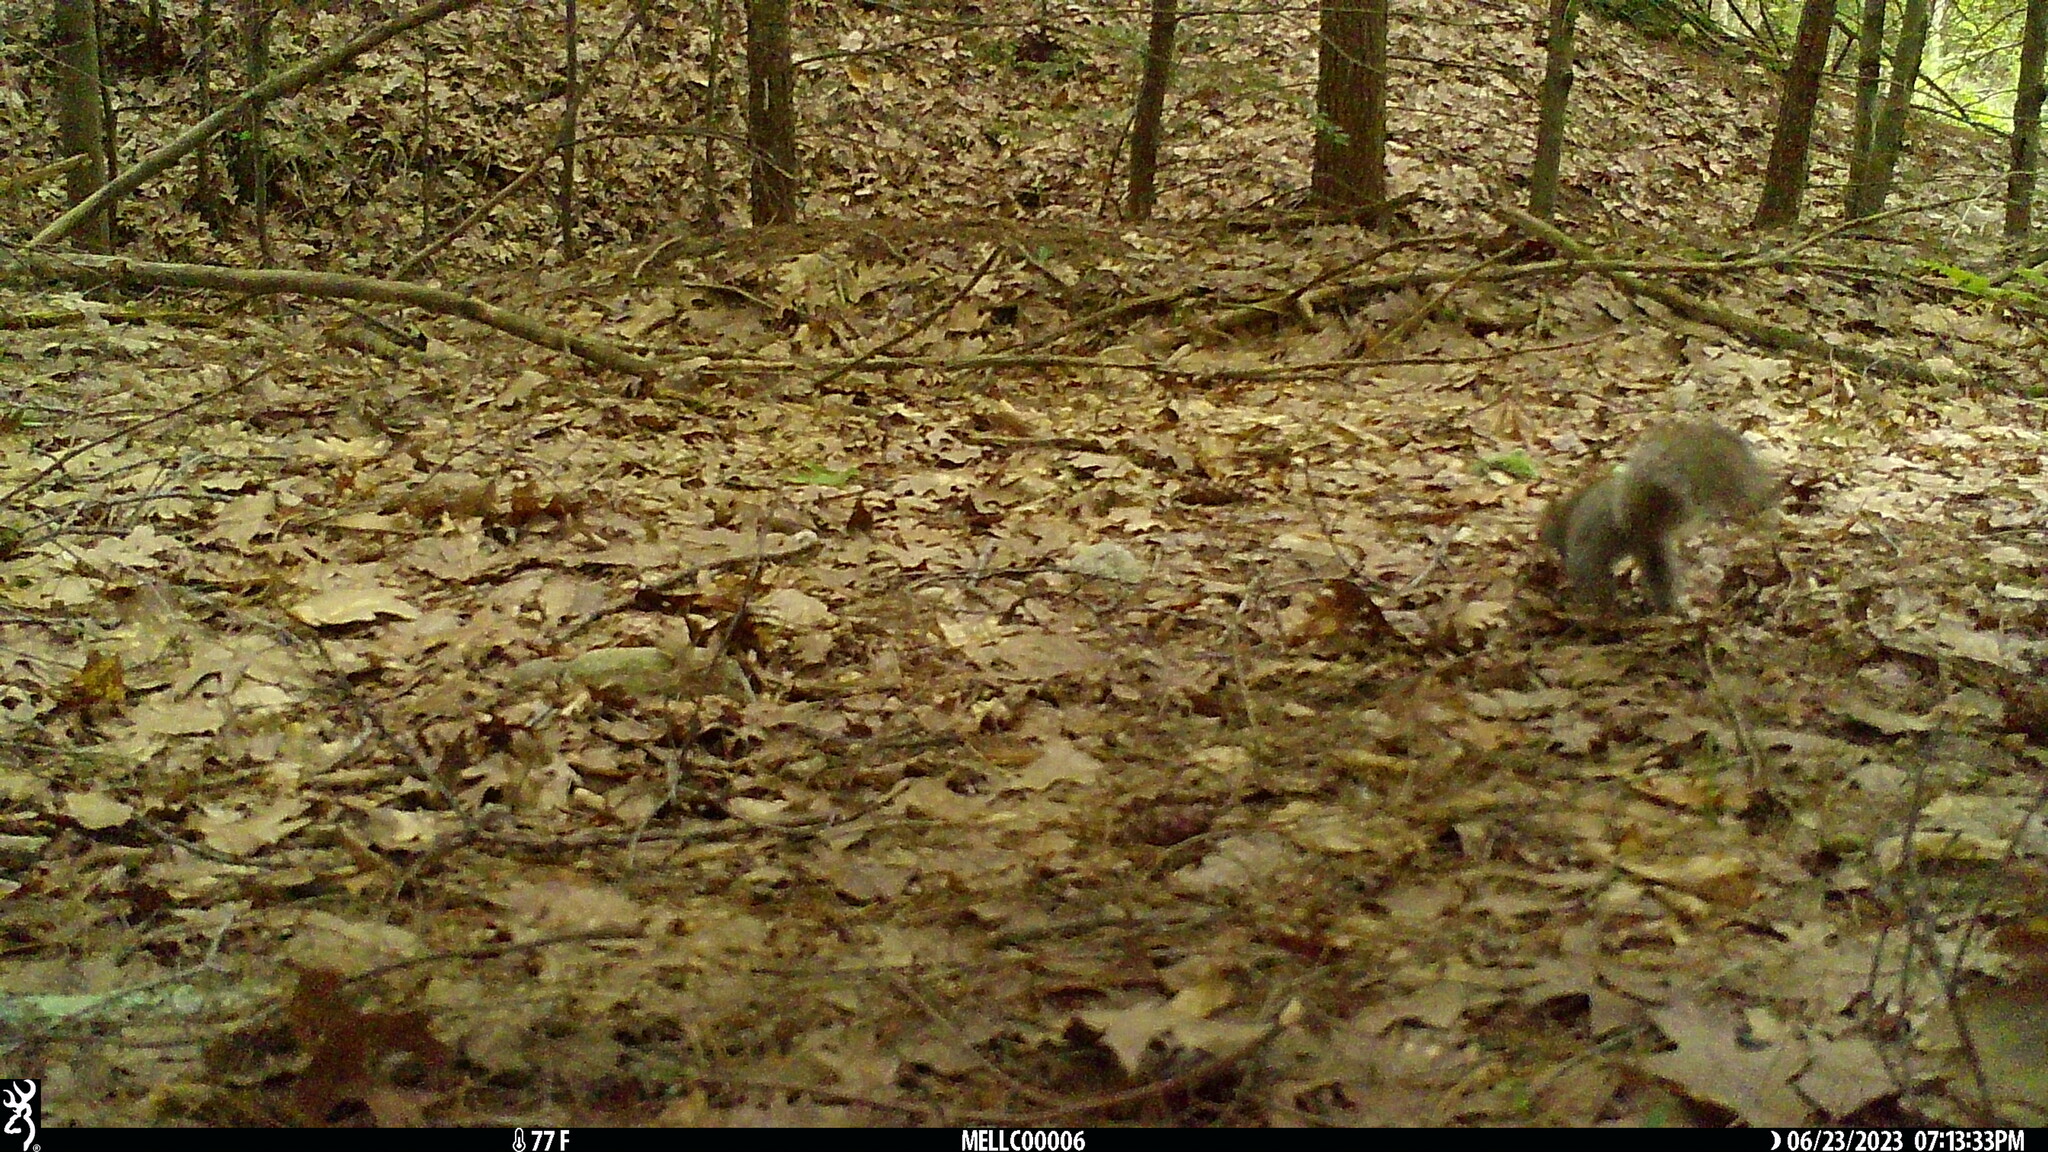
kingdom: Animalia
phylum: Chordata
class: Mammalia
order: Rodentia
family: Sciuridae
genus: Sciurus
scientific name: Sciurus carolinensis
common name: Eastern gray squirrel
